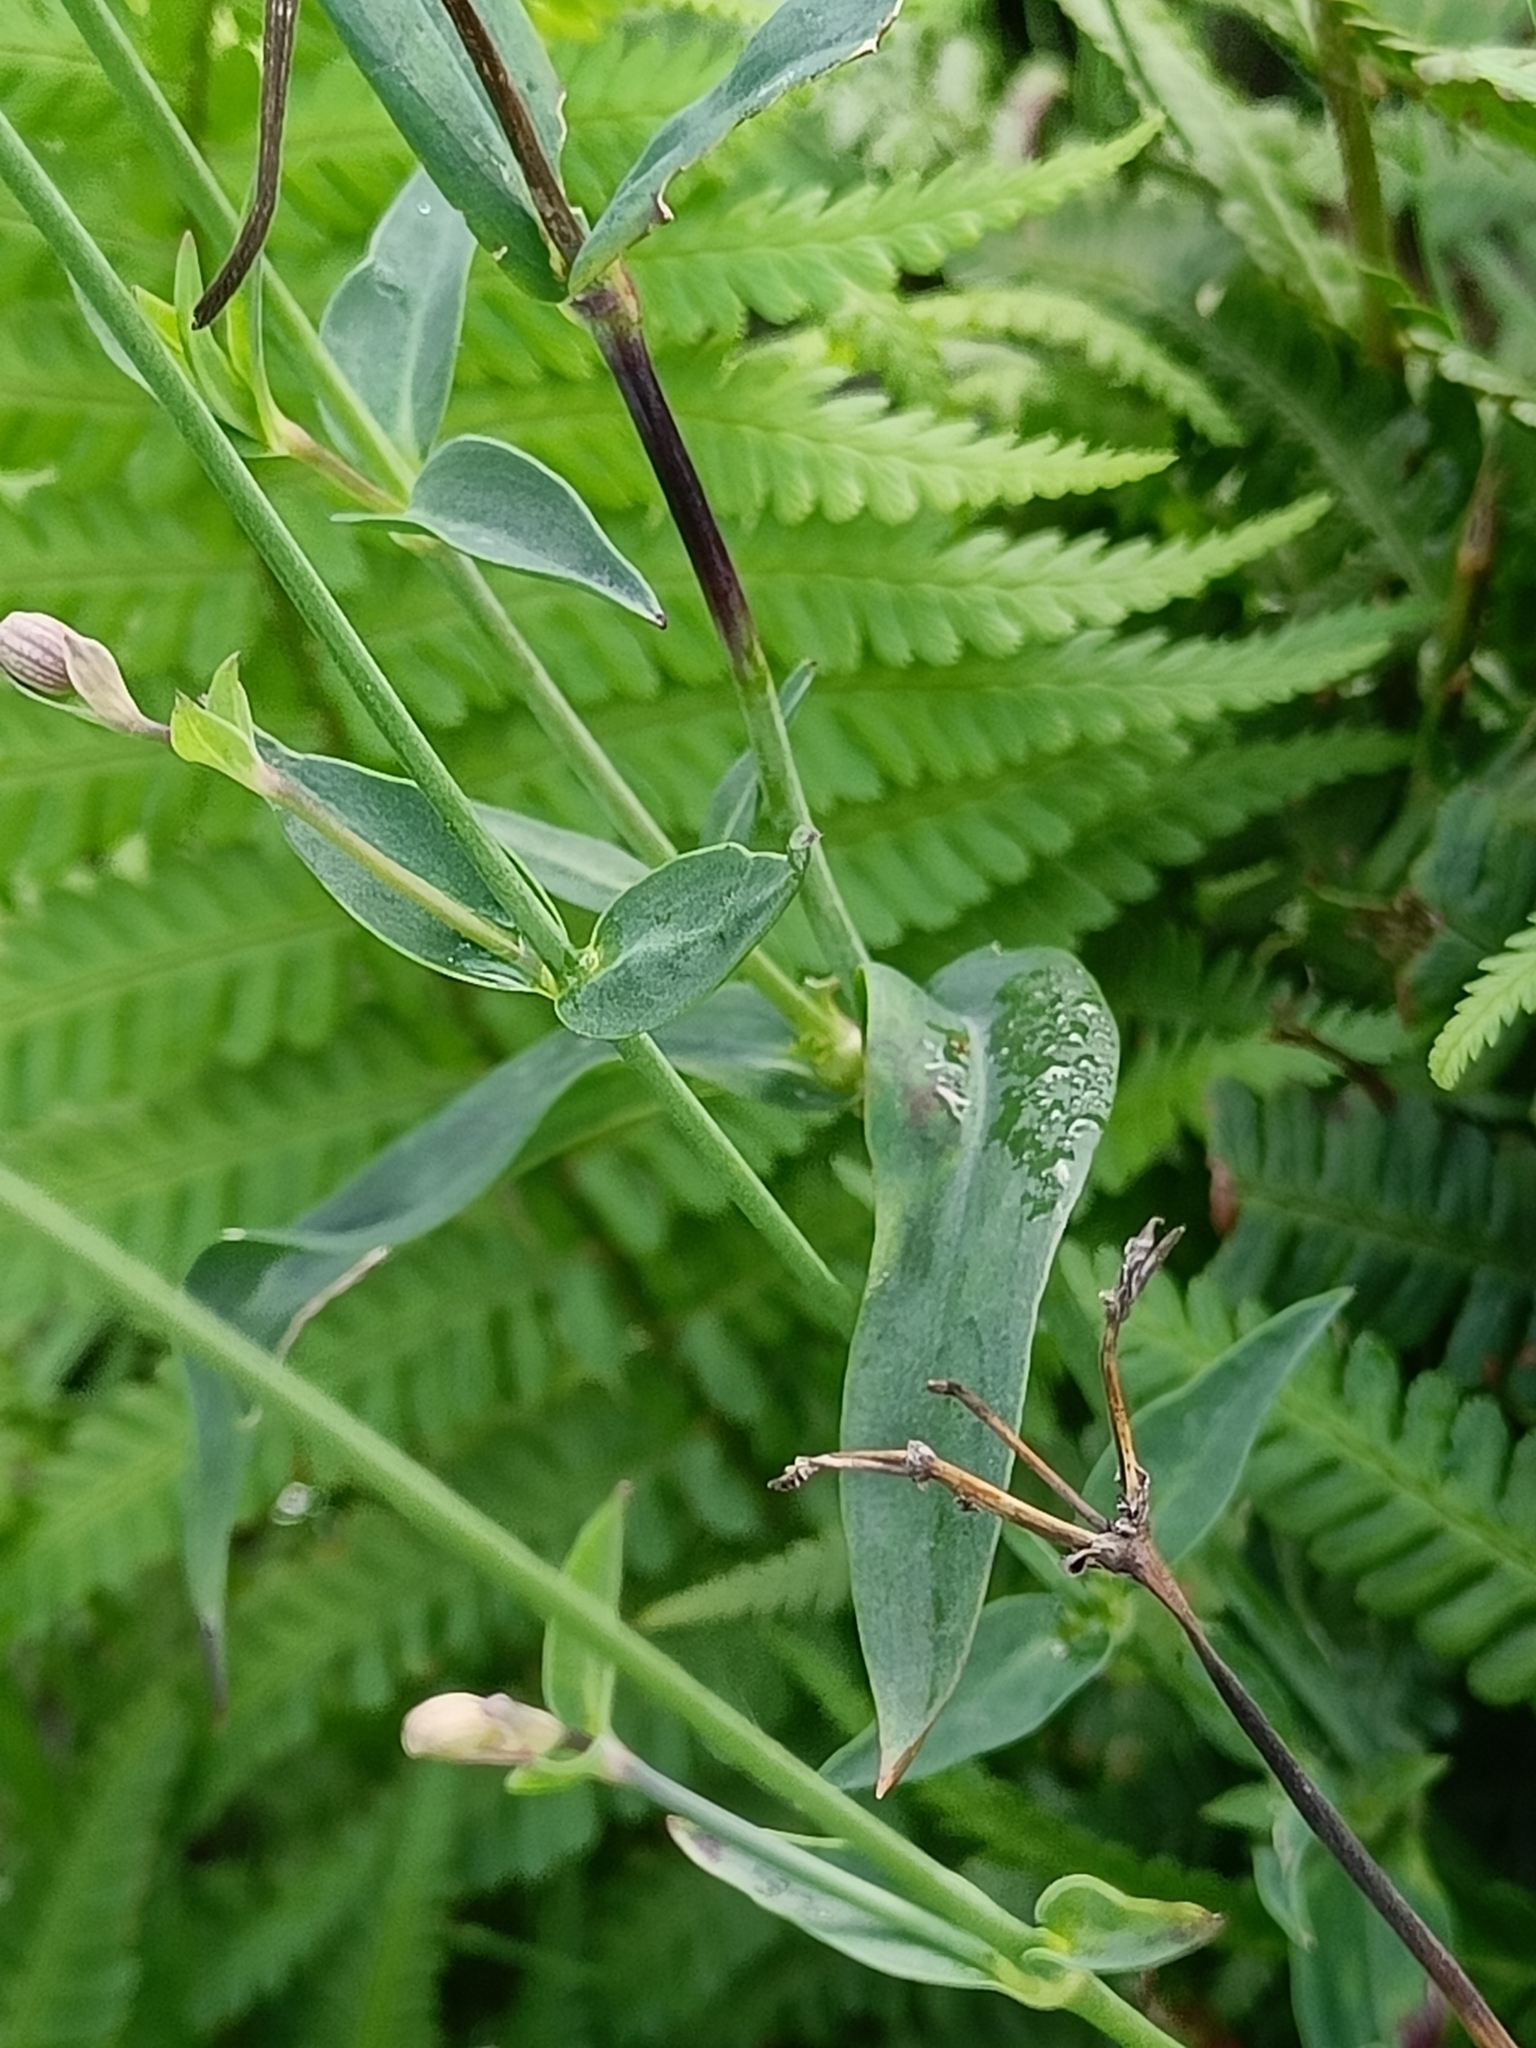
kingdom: Plantae
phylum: Tracheophyta
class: Magnoliopsida
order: Caryophyllales
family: Caryophyllaceae
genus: Silene
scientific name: Silene vulgaris
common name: Bladder campion
